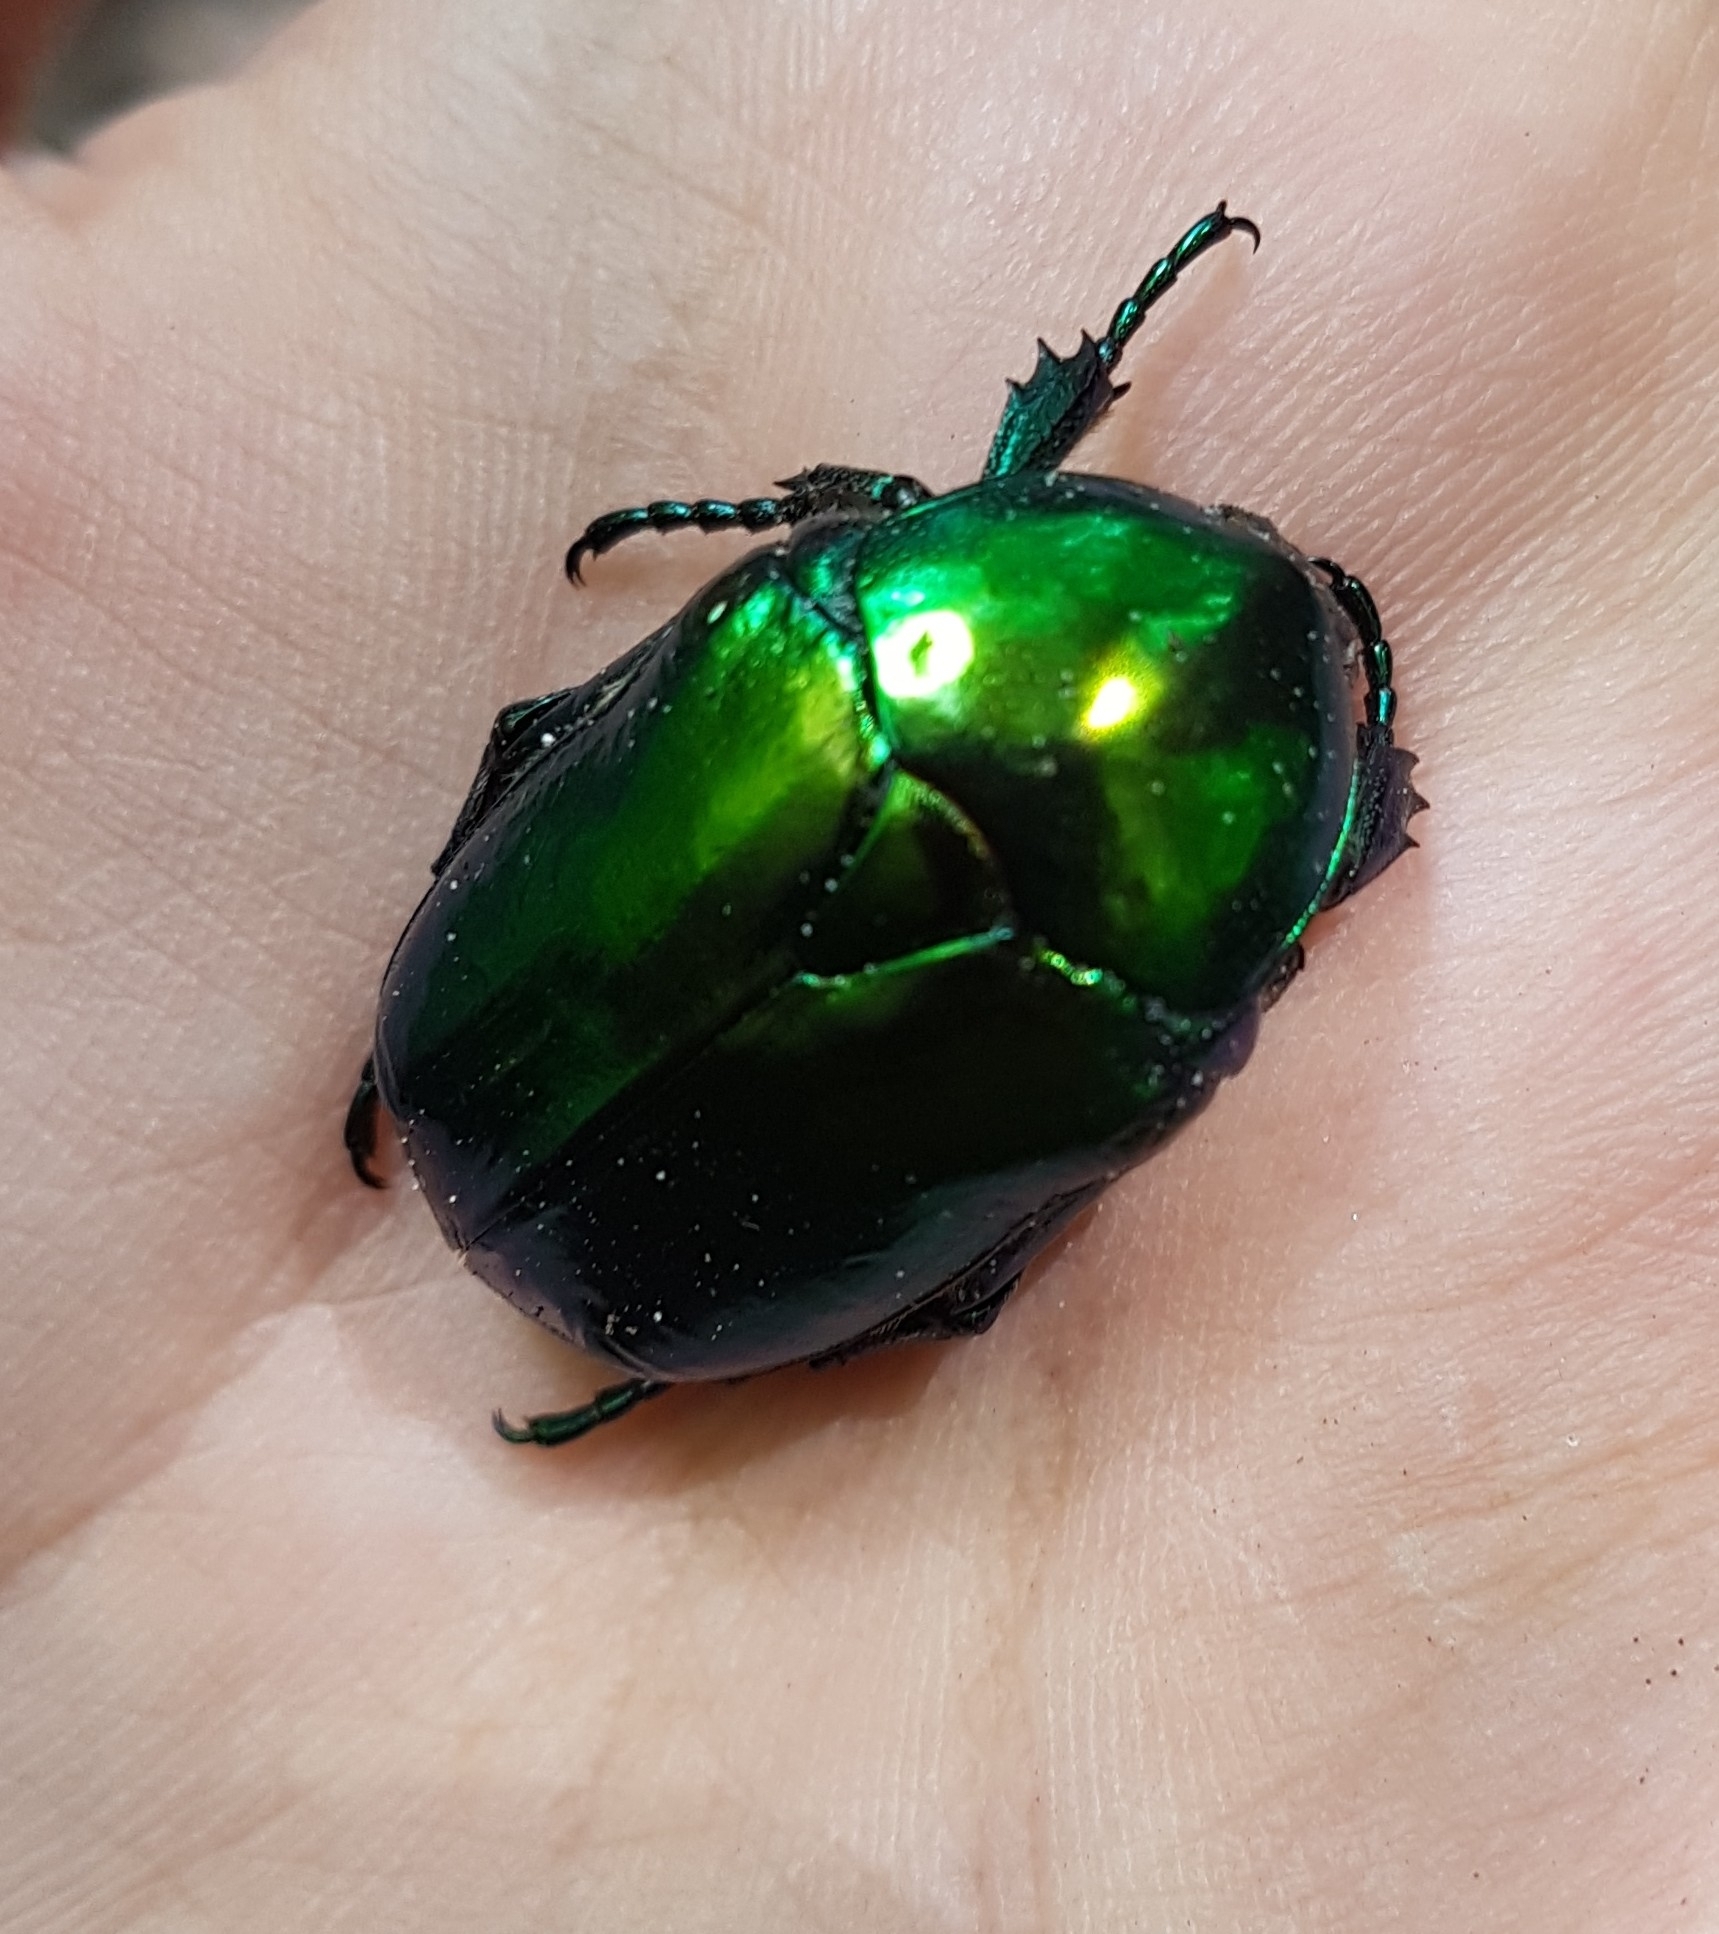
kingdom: Animalia
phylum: Arthropoda
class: Insecta
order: Coleoptera
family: Scarabaeidae
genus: Protaetia
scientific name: Protaetia speciosissima
